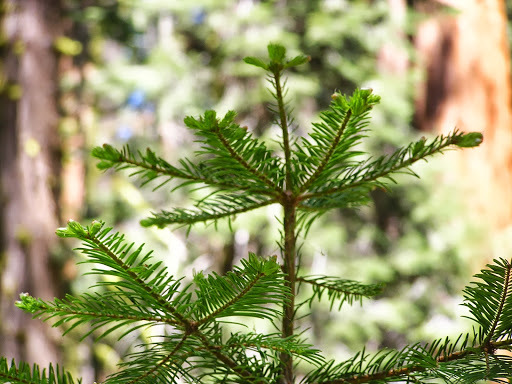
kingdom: Plantae
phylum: Tracheophyta
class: Pinopsida
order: Pinales
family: Pinaceae
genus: Abies
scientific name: Abies concolor
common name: Colorado fir
